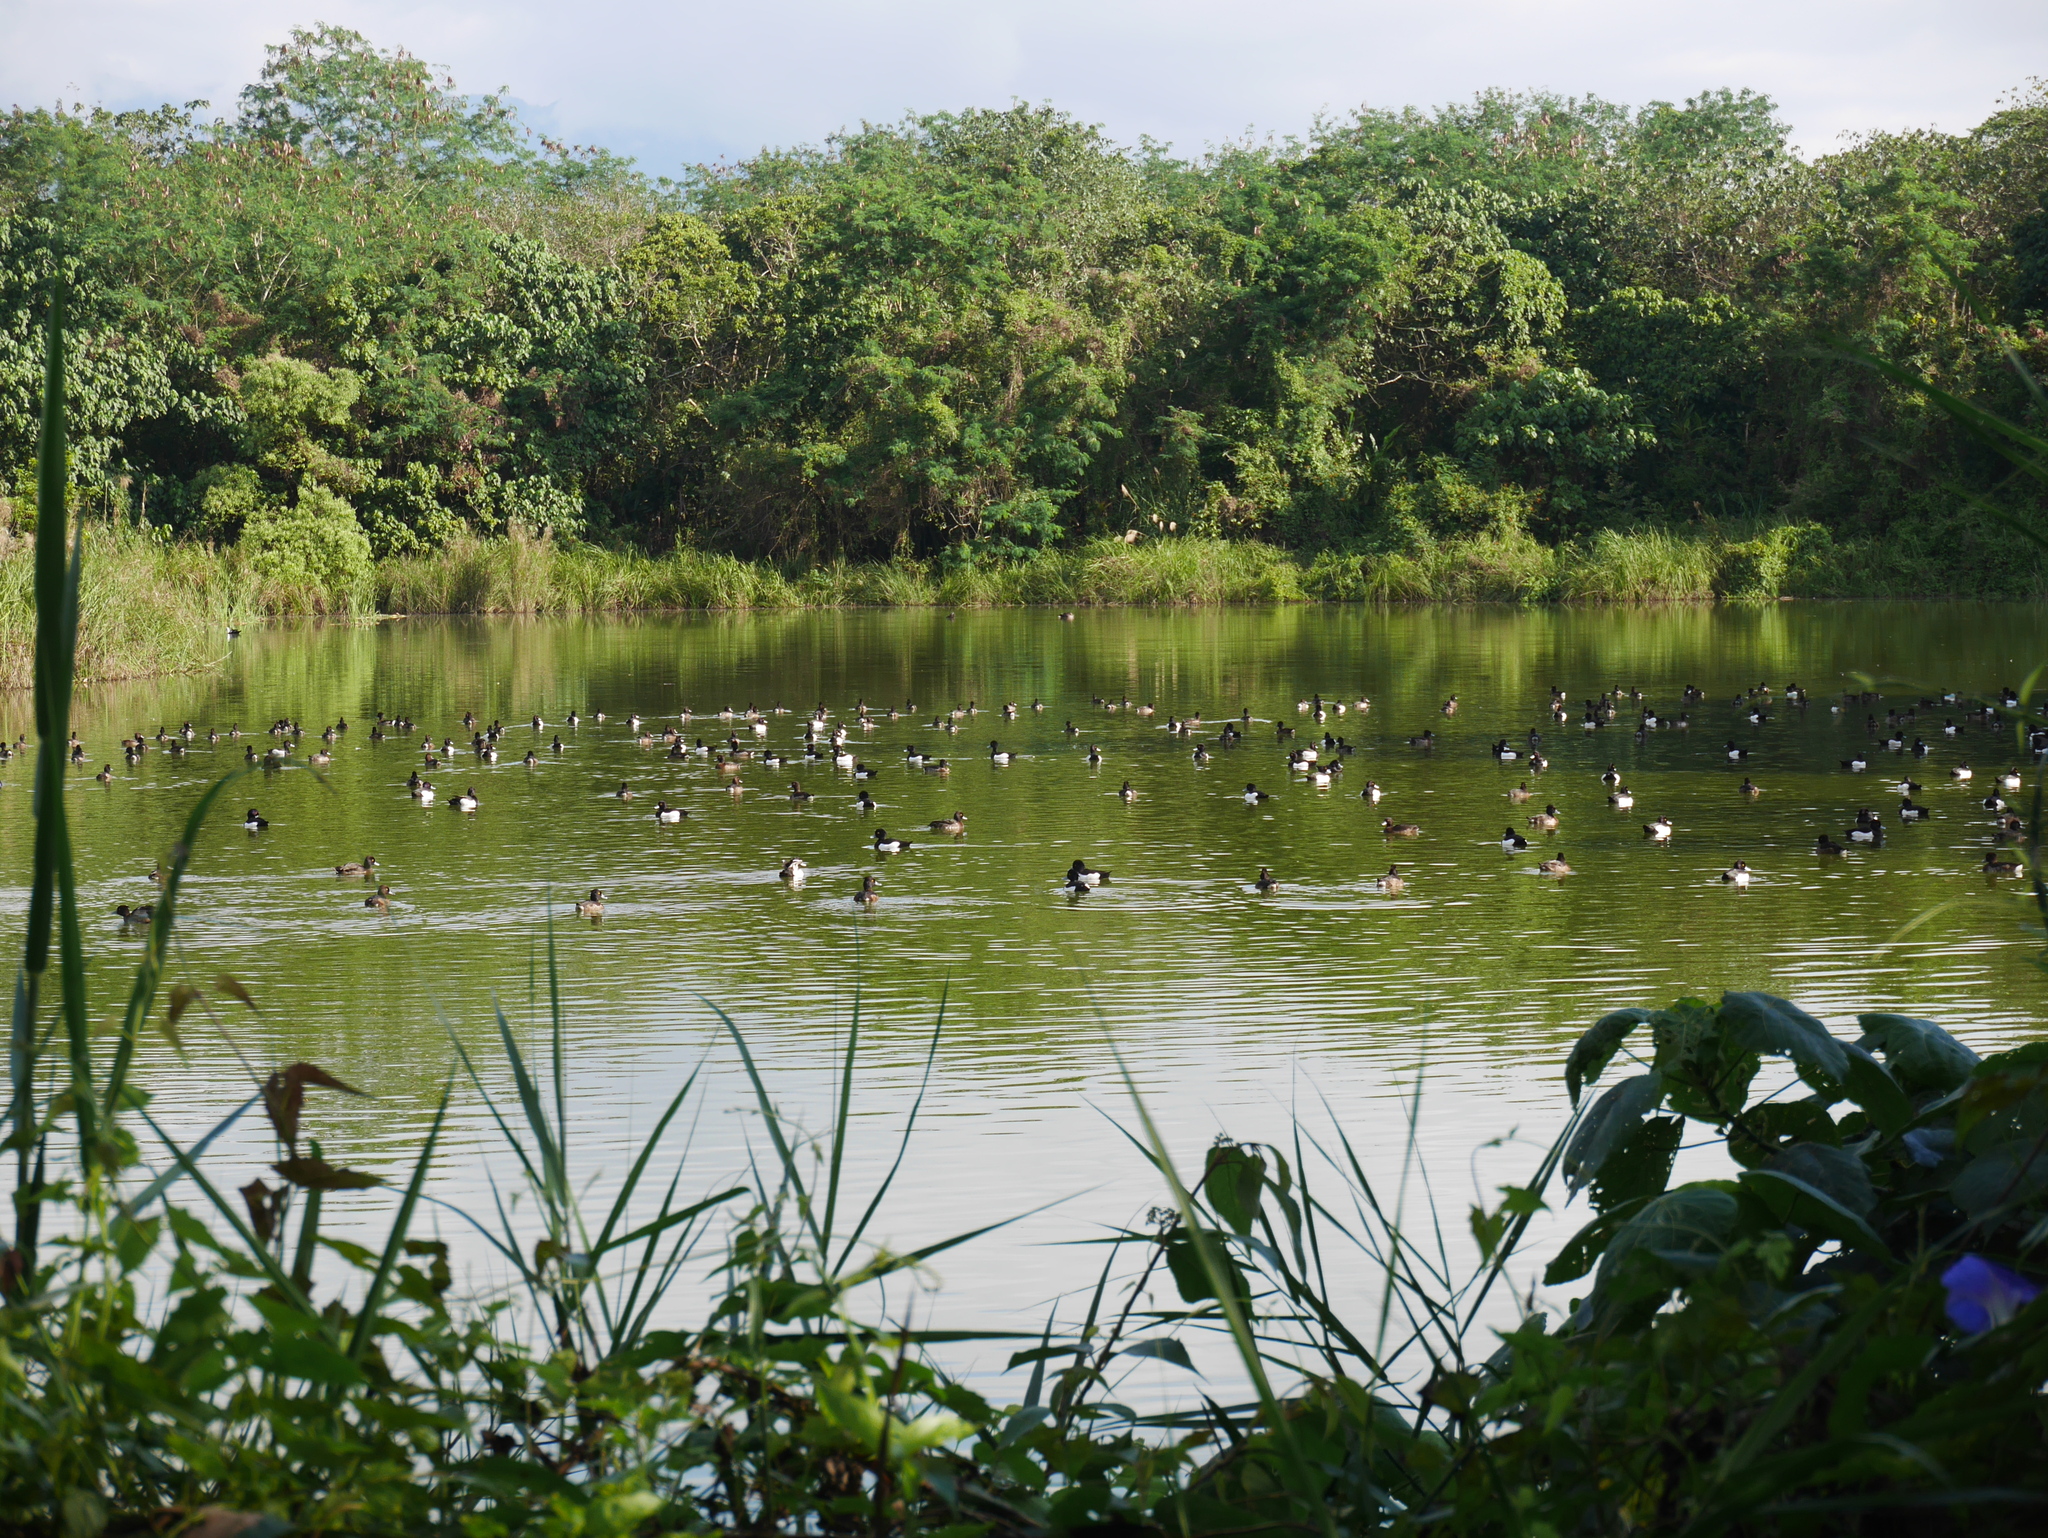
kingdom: Animalia
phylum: Chordata
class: Aves
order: Anseriformes
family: Anatidae
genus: Aythya
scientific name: Aythya fuligula
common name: Tufted duck
